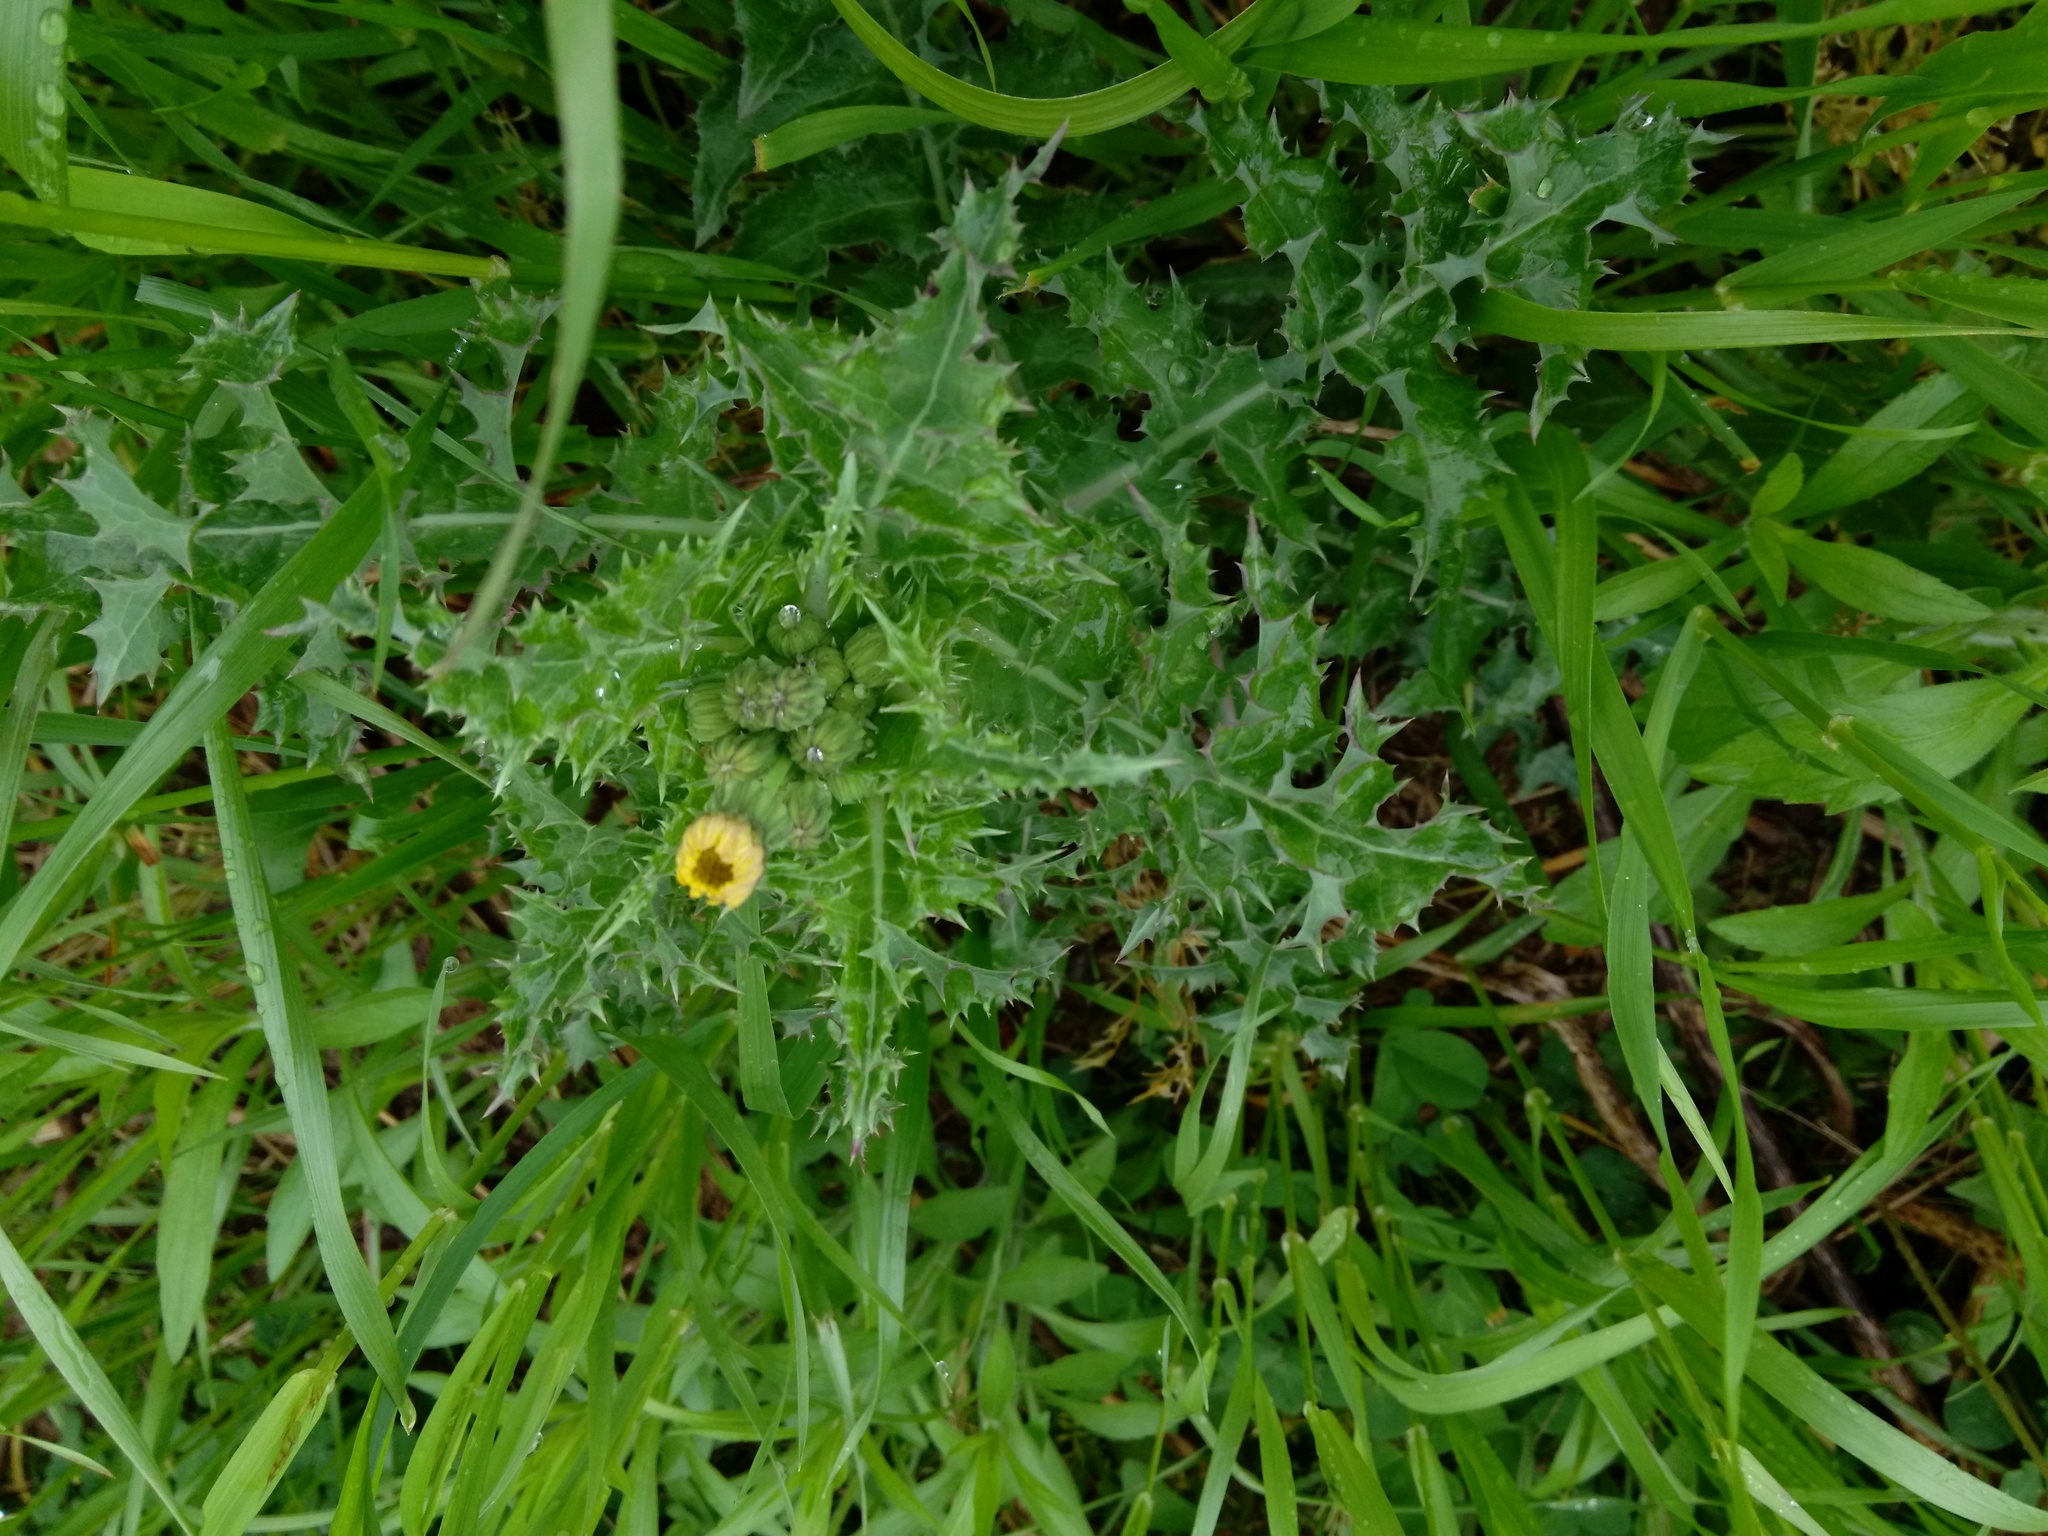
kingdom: Plantae
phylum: Tracheophyta
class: Magnoliopsida
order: Asterales
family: Asteraceae
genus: Sonchus
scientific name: Sonchus asper
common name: Prickly sow-thistle
